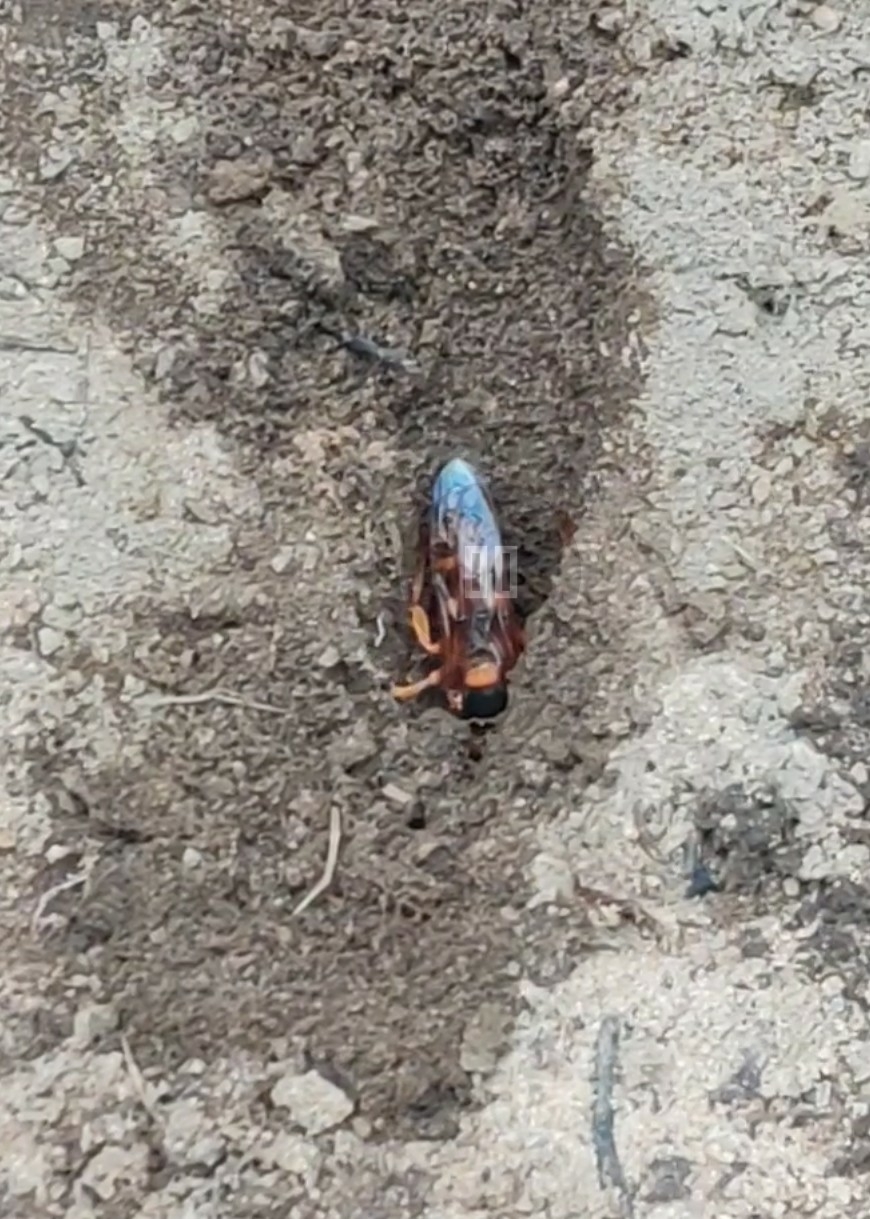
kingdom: Animalia
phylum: Arthropoda
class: Insecta
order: Hymenoptera
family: Crabronidae
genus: Sphecius
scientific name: Sphecius speciosus
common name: Cicada killer
